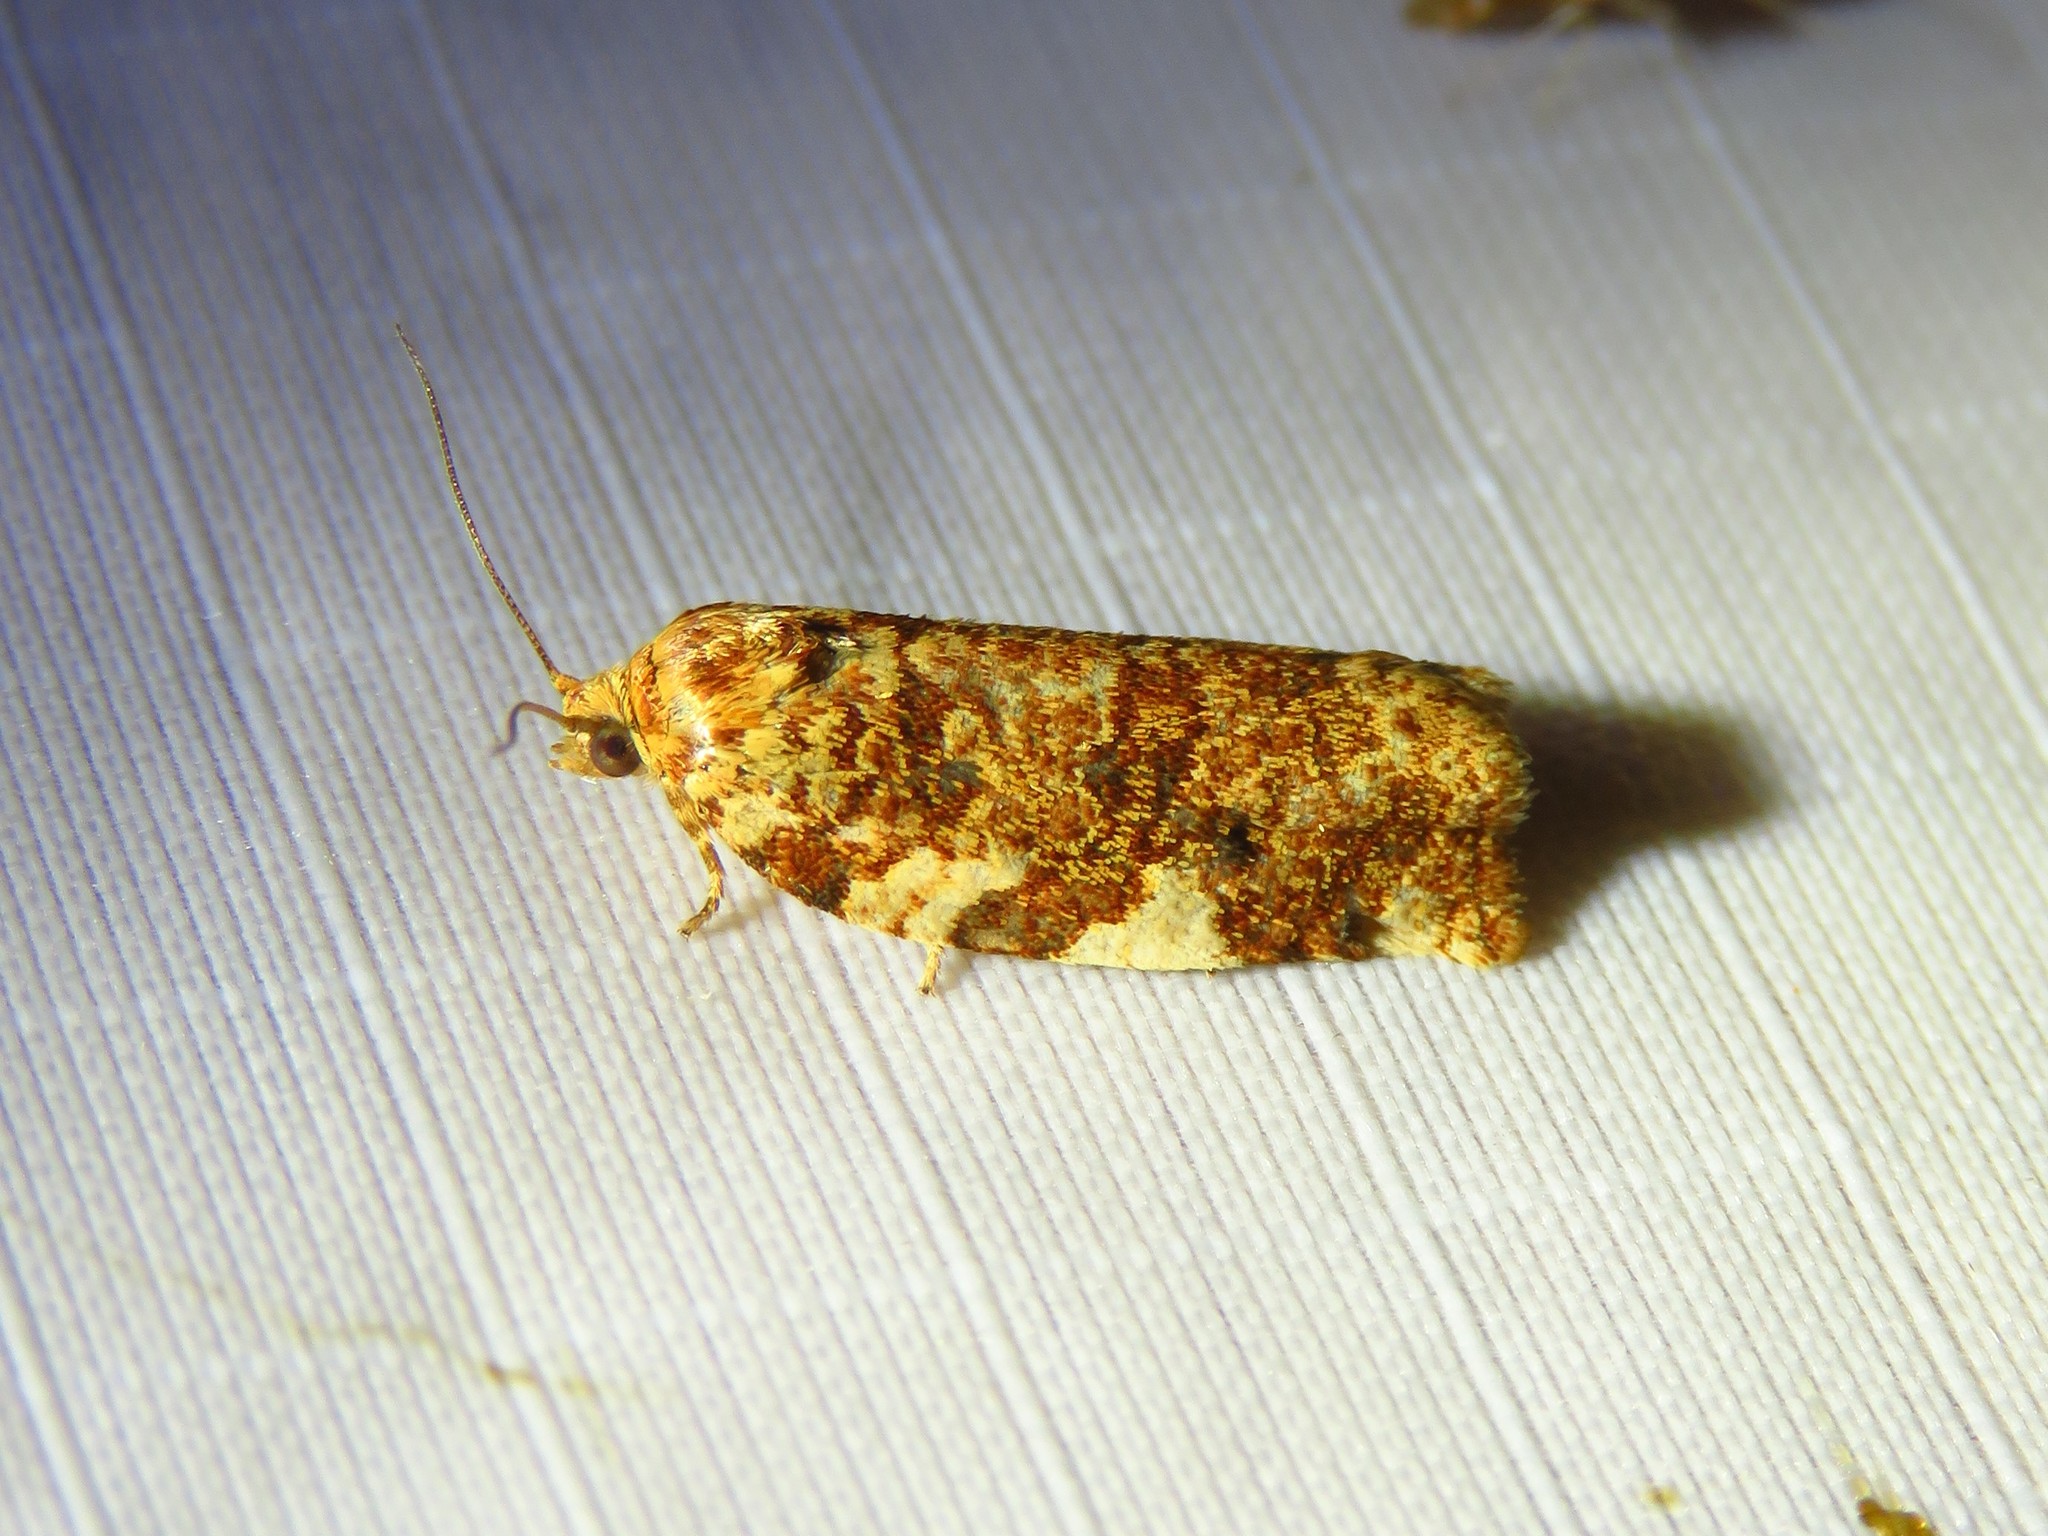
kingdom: Animalia
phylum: Arthropoda
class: Insecta
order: Lepidoptera
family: Tortricidae
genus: Archips
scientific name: Archips argyrospila
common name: Fruit-tree leafroller moth
